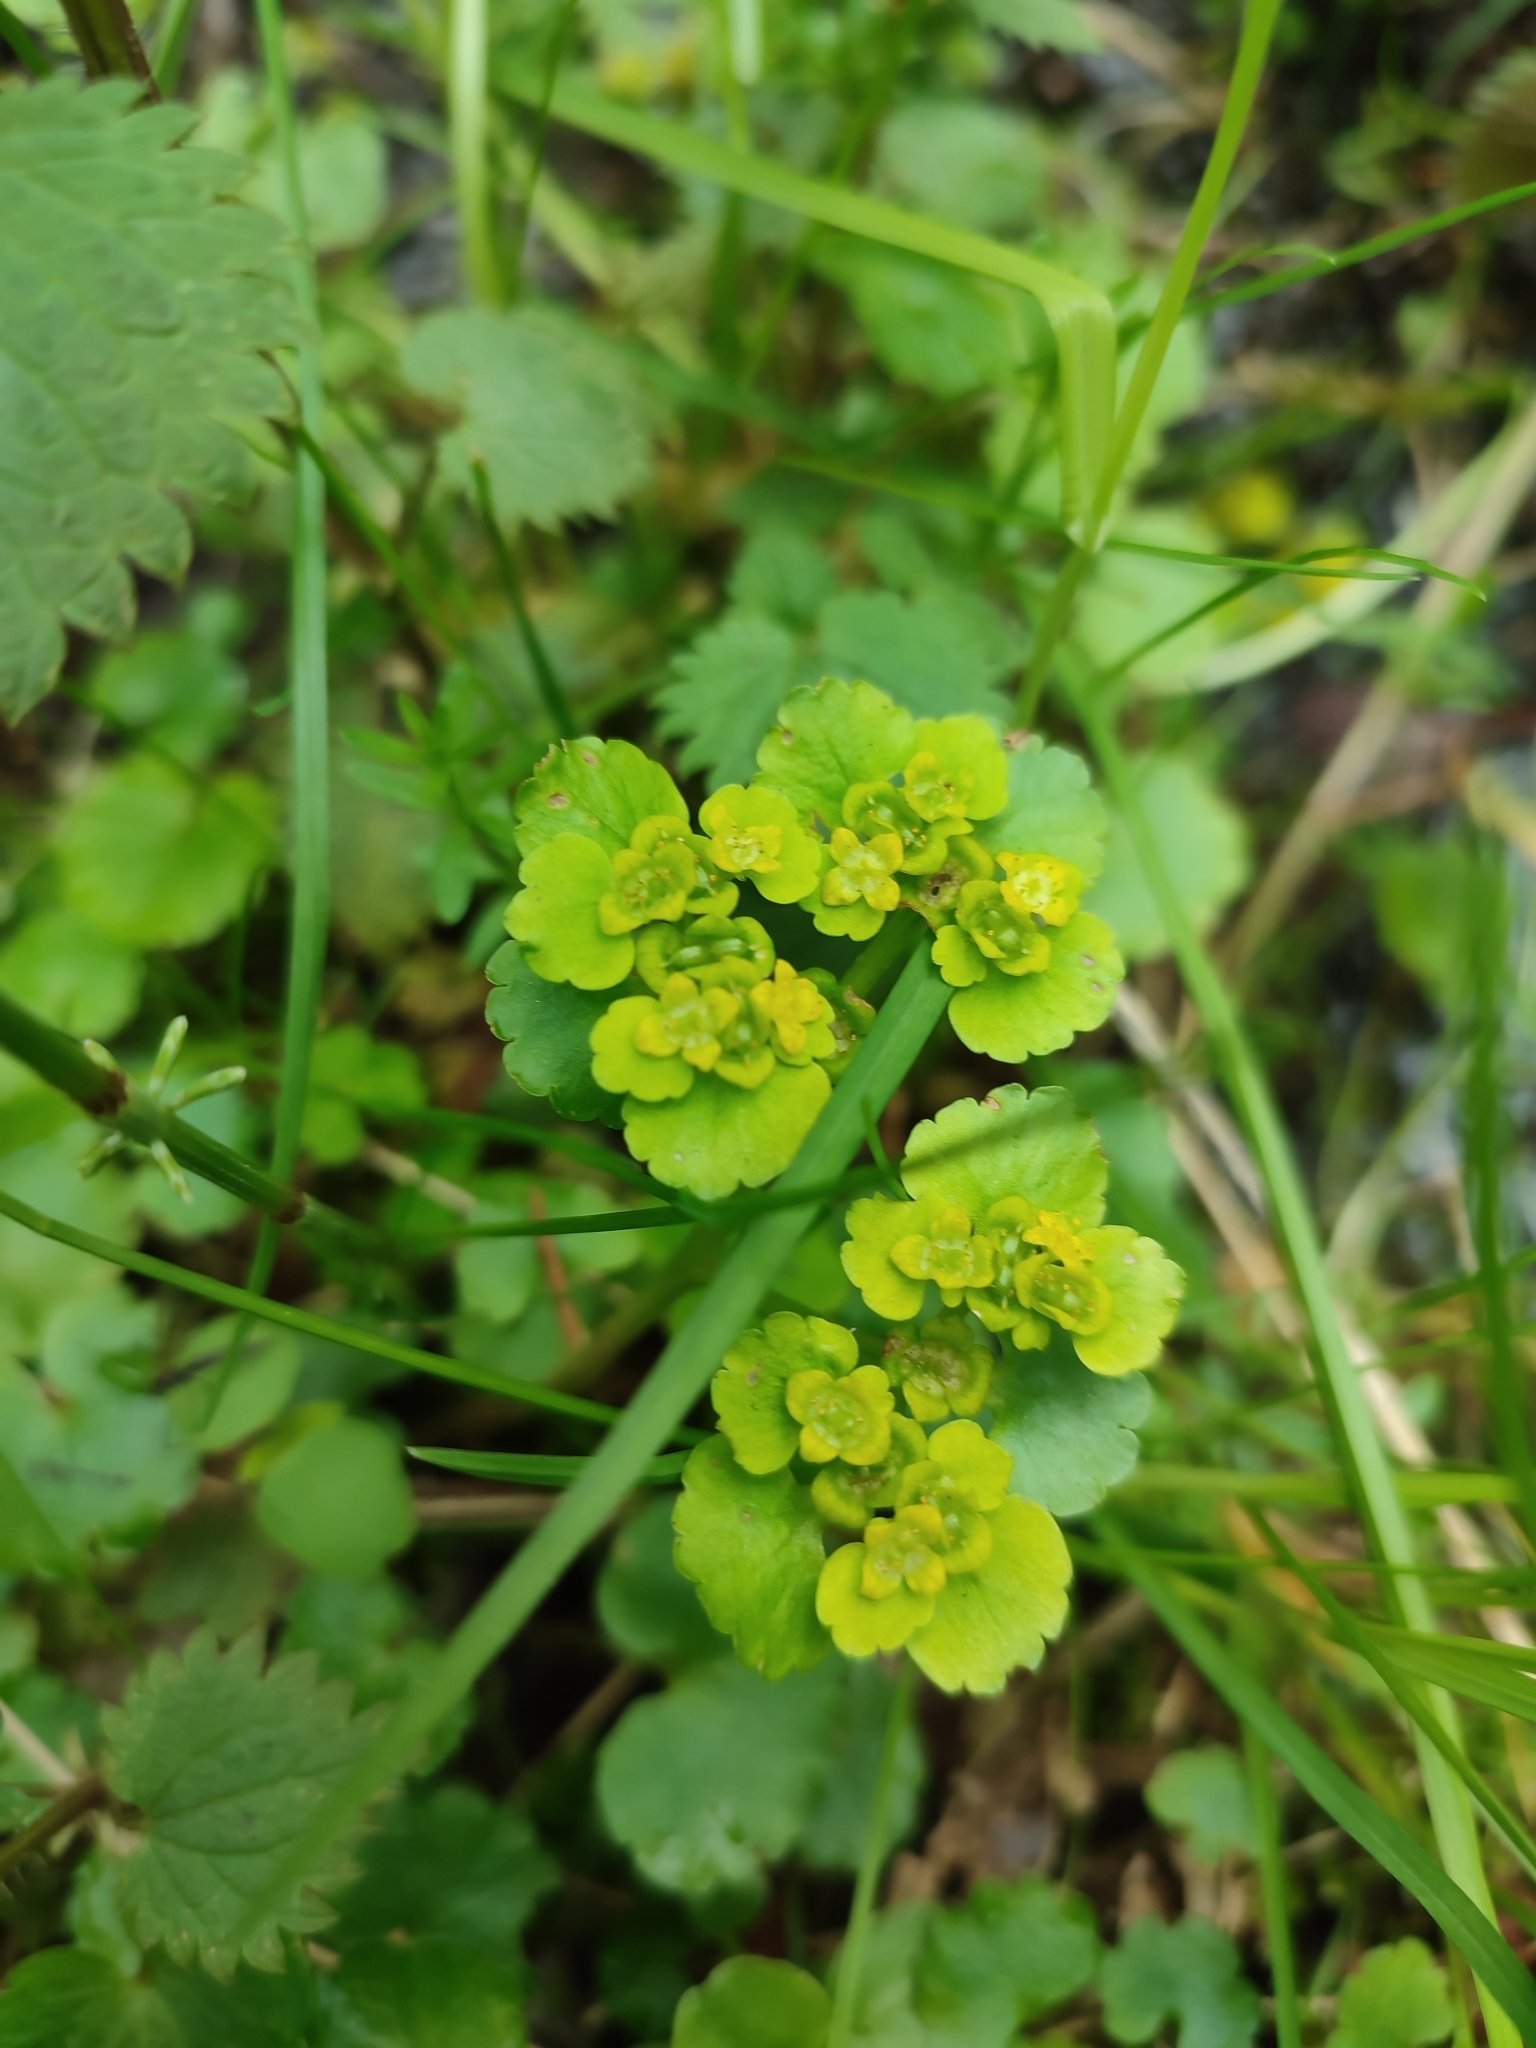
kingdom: Plantae
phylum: Tracheophyta
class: Magnoliopsida
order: Saxifragales
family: Saxifragaceae
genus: Chrysosplenium
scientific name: Chrysosplenium alternifolium
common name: Alternate-leaved golden-saxifrage
